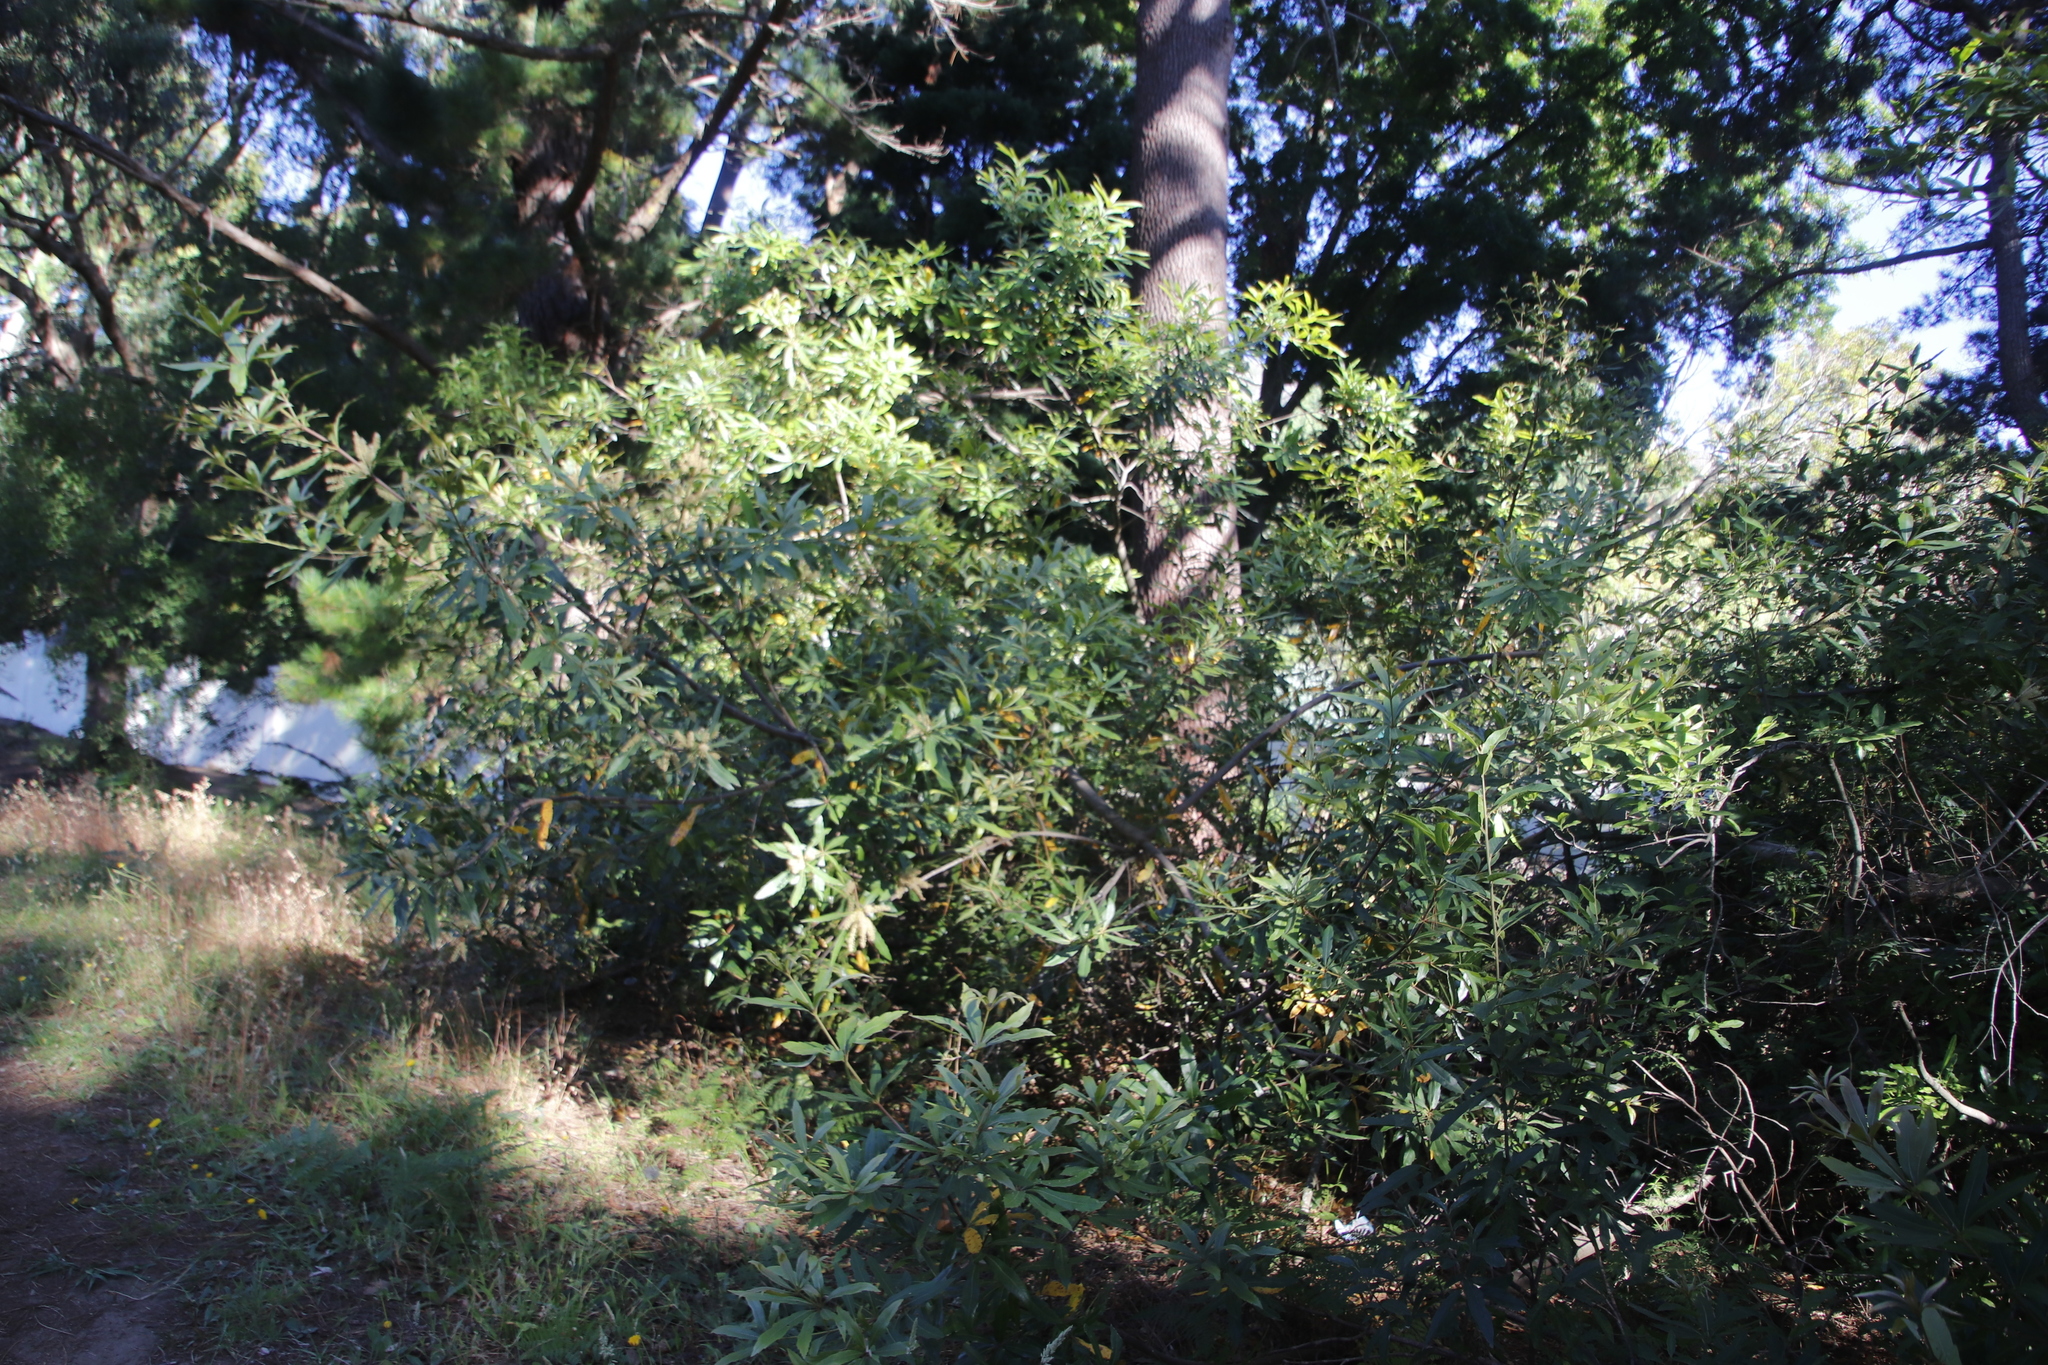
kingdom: Plantae
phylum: Tracheophyta
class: Magnoliopsida
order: Proteales
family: Proteaceae
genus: Brabejum
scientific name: Brabejum stellatifolium
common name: Wild almond
